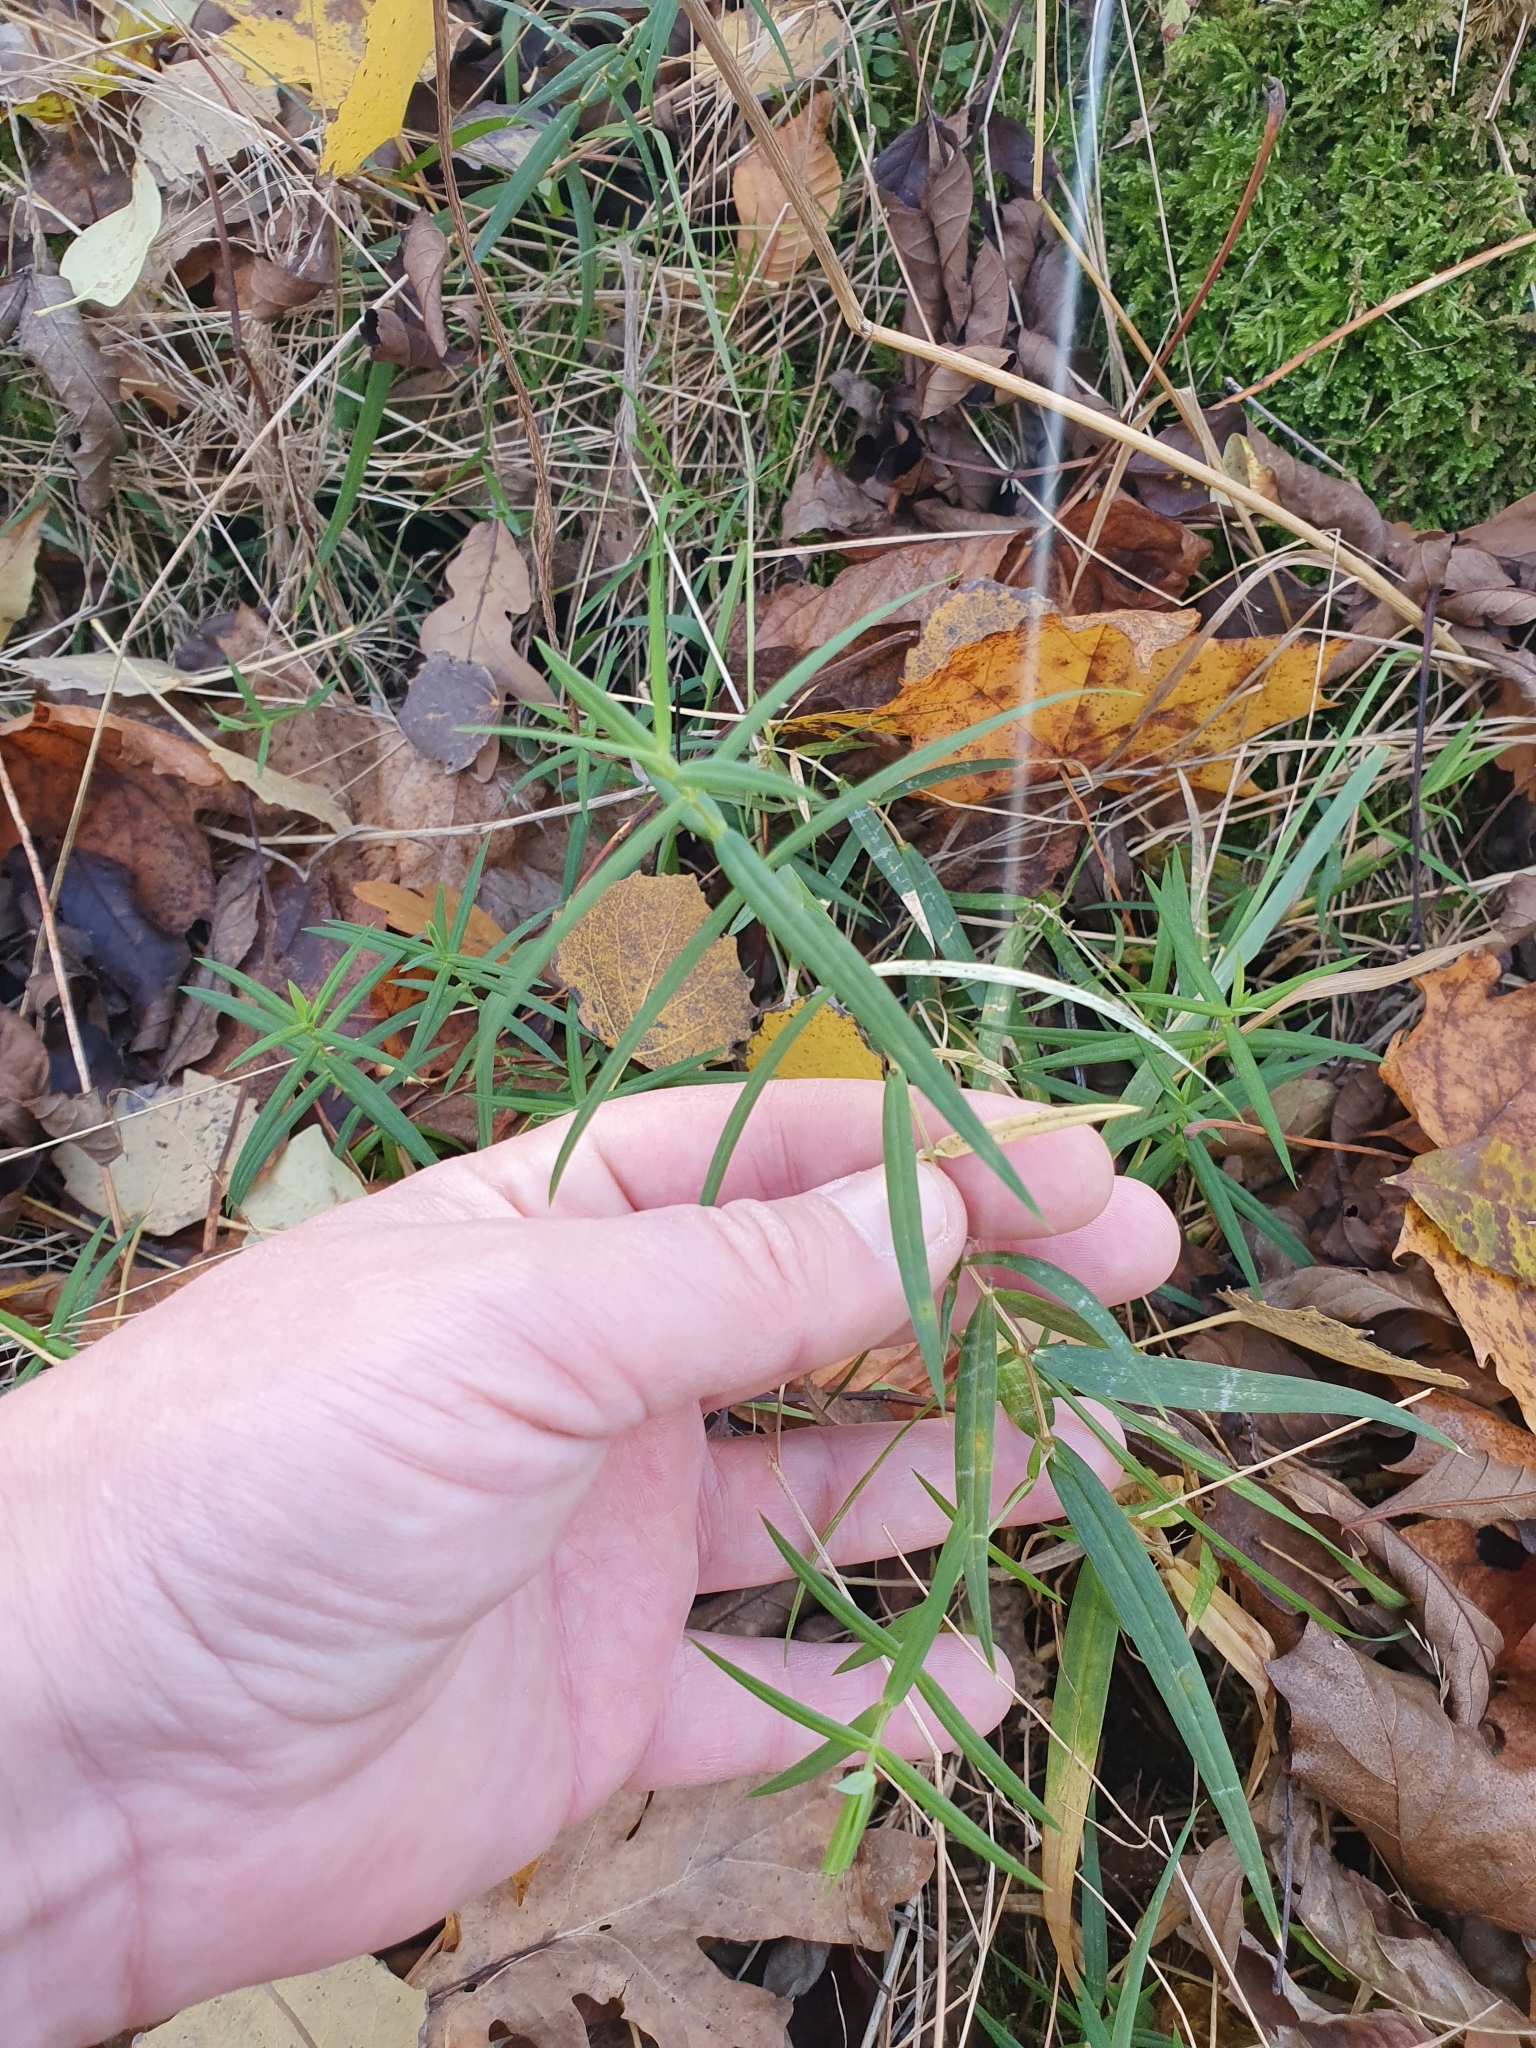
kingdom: Plantae
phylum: Tracheophyta
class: Magnoliopsida
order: Asterales
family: Asteraceae
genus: Achillea
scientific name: Achillea ptarmica
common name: Sneezeweed
